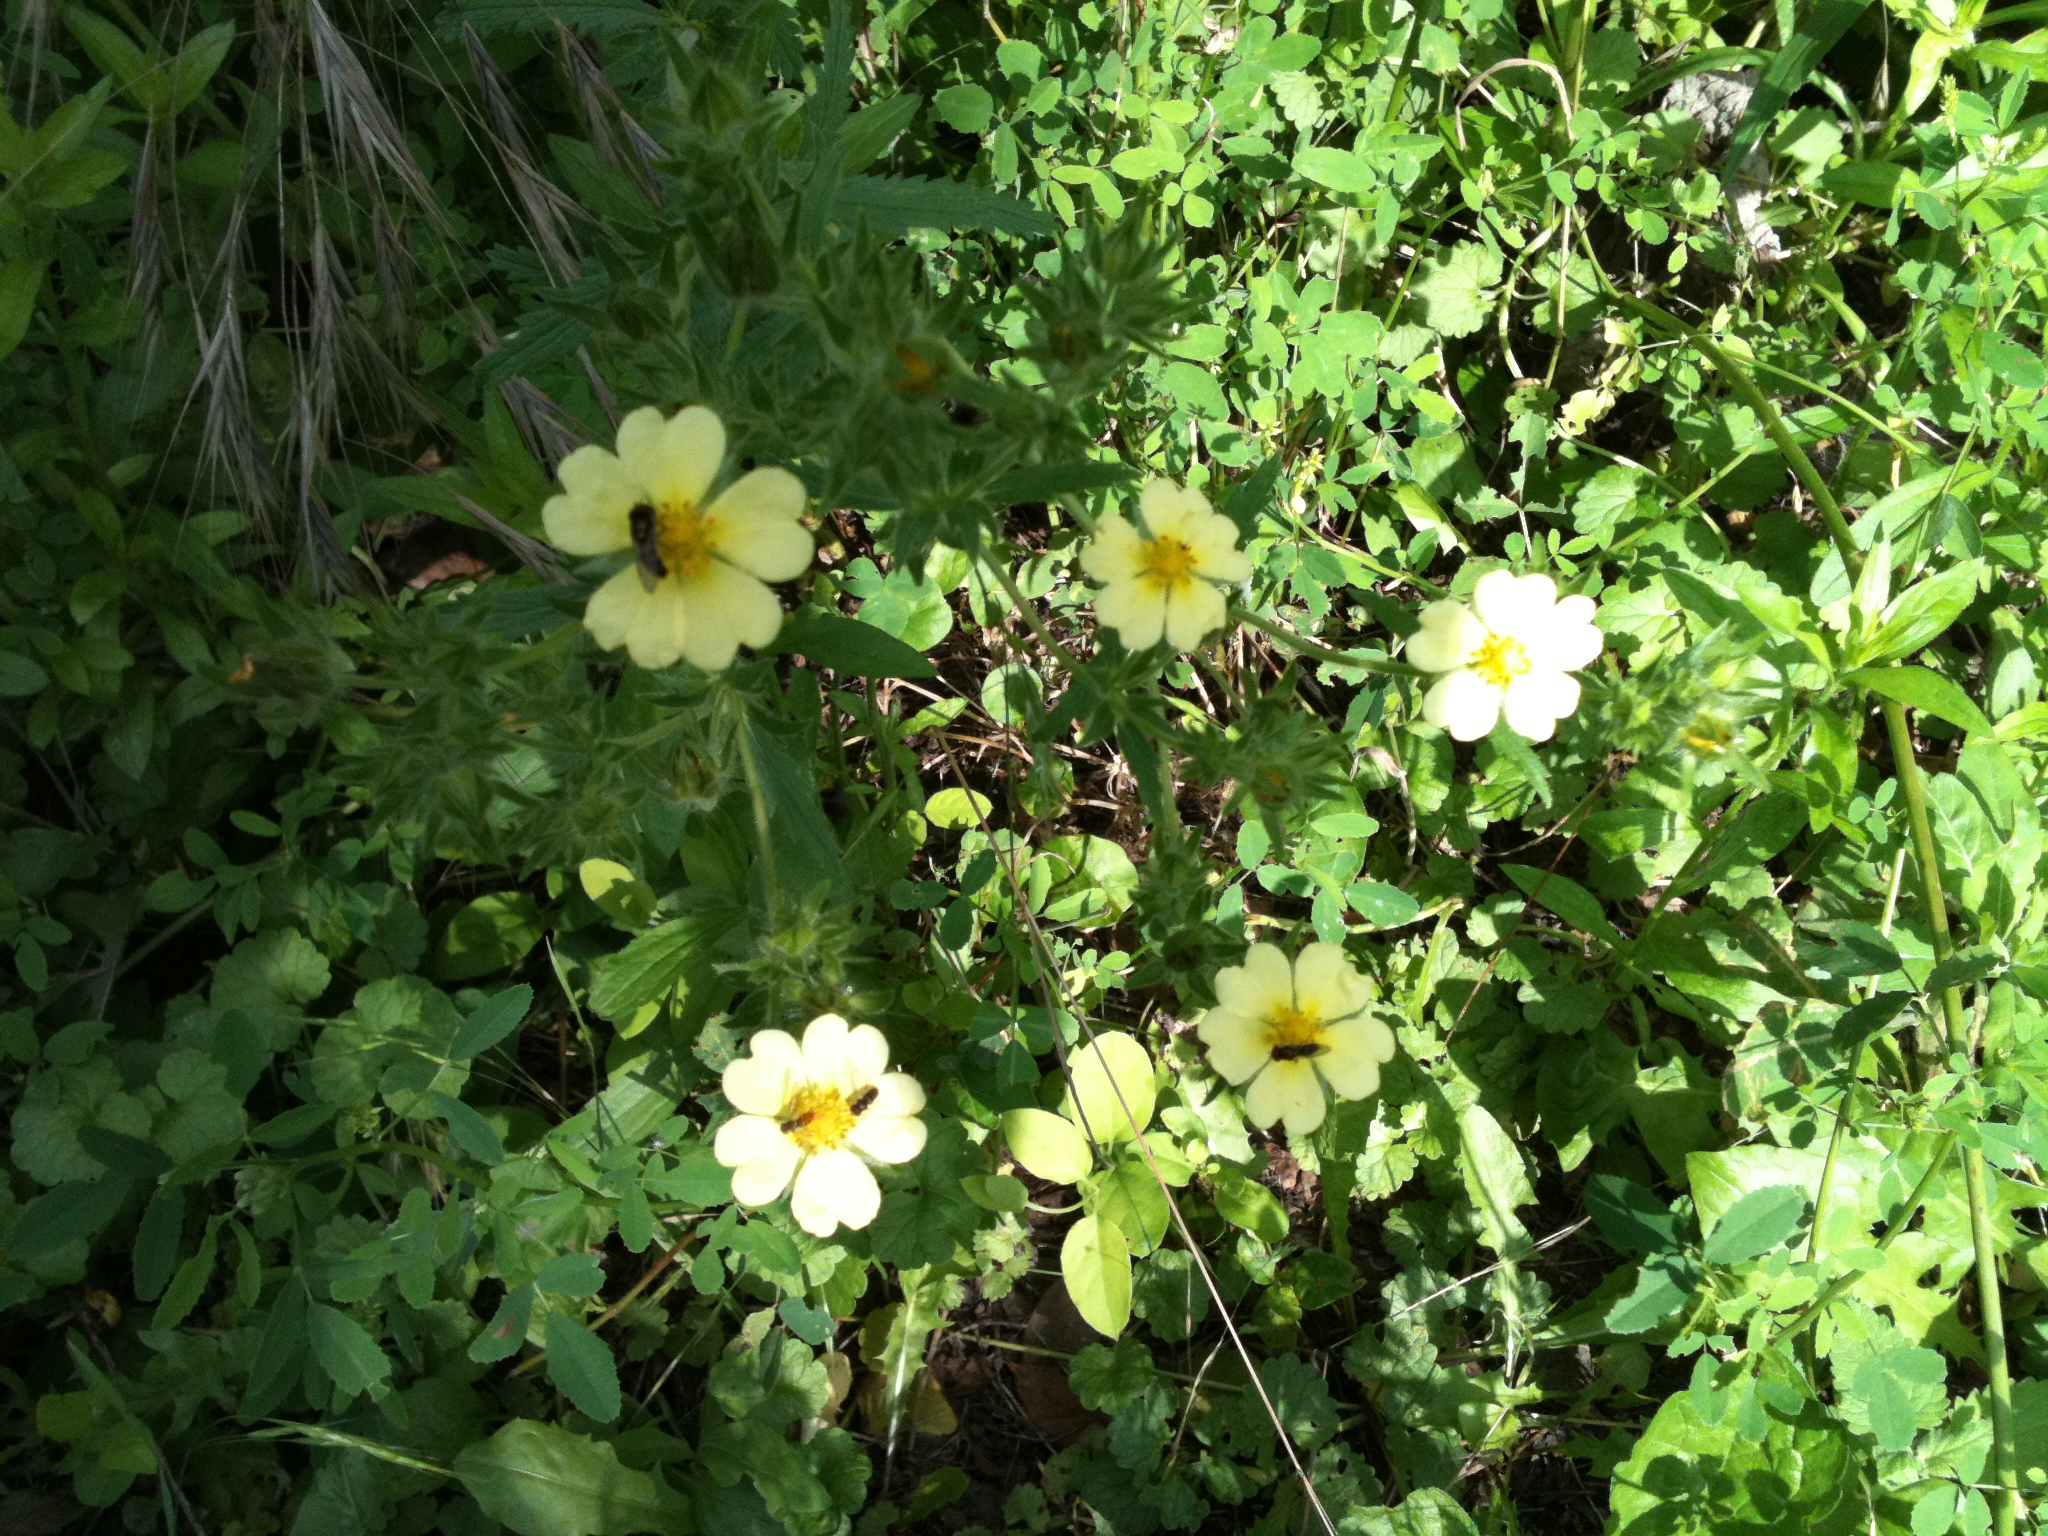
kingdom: Plantae
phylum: Tracheophyta
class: Magnoliopsida
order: Rosales
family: Rosaceae
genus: Potentilla
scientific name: Potentilla recta
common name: Sulphur cinquefoil
